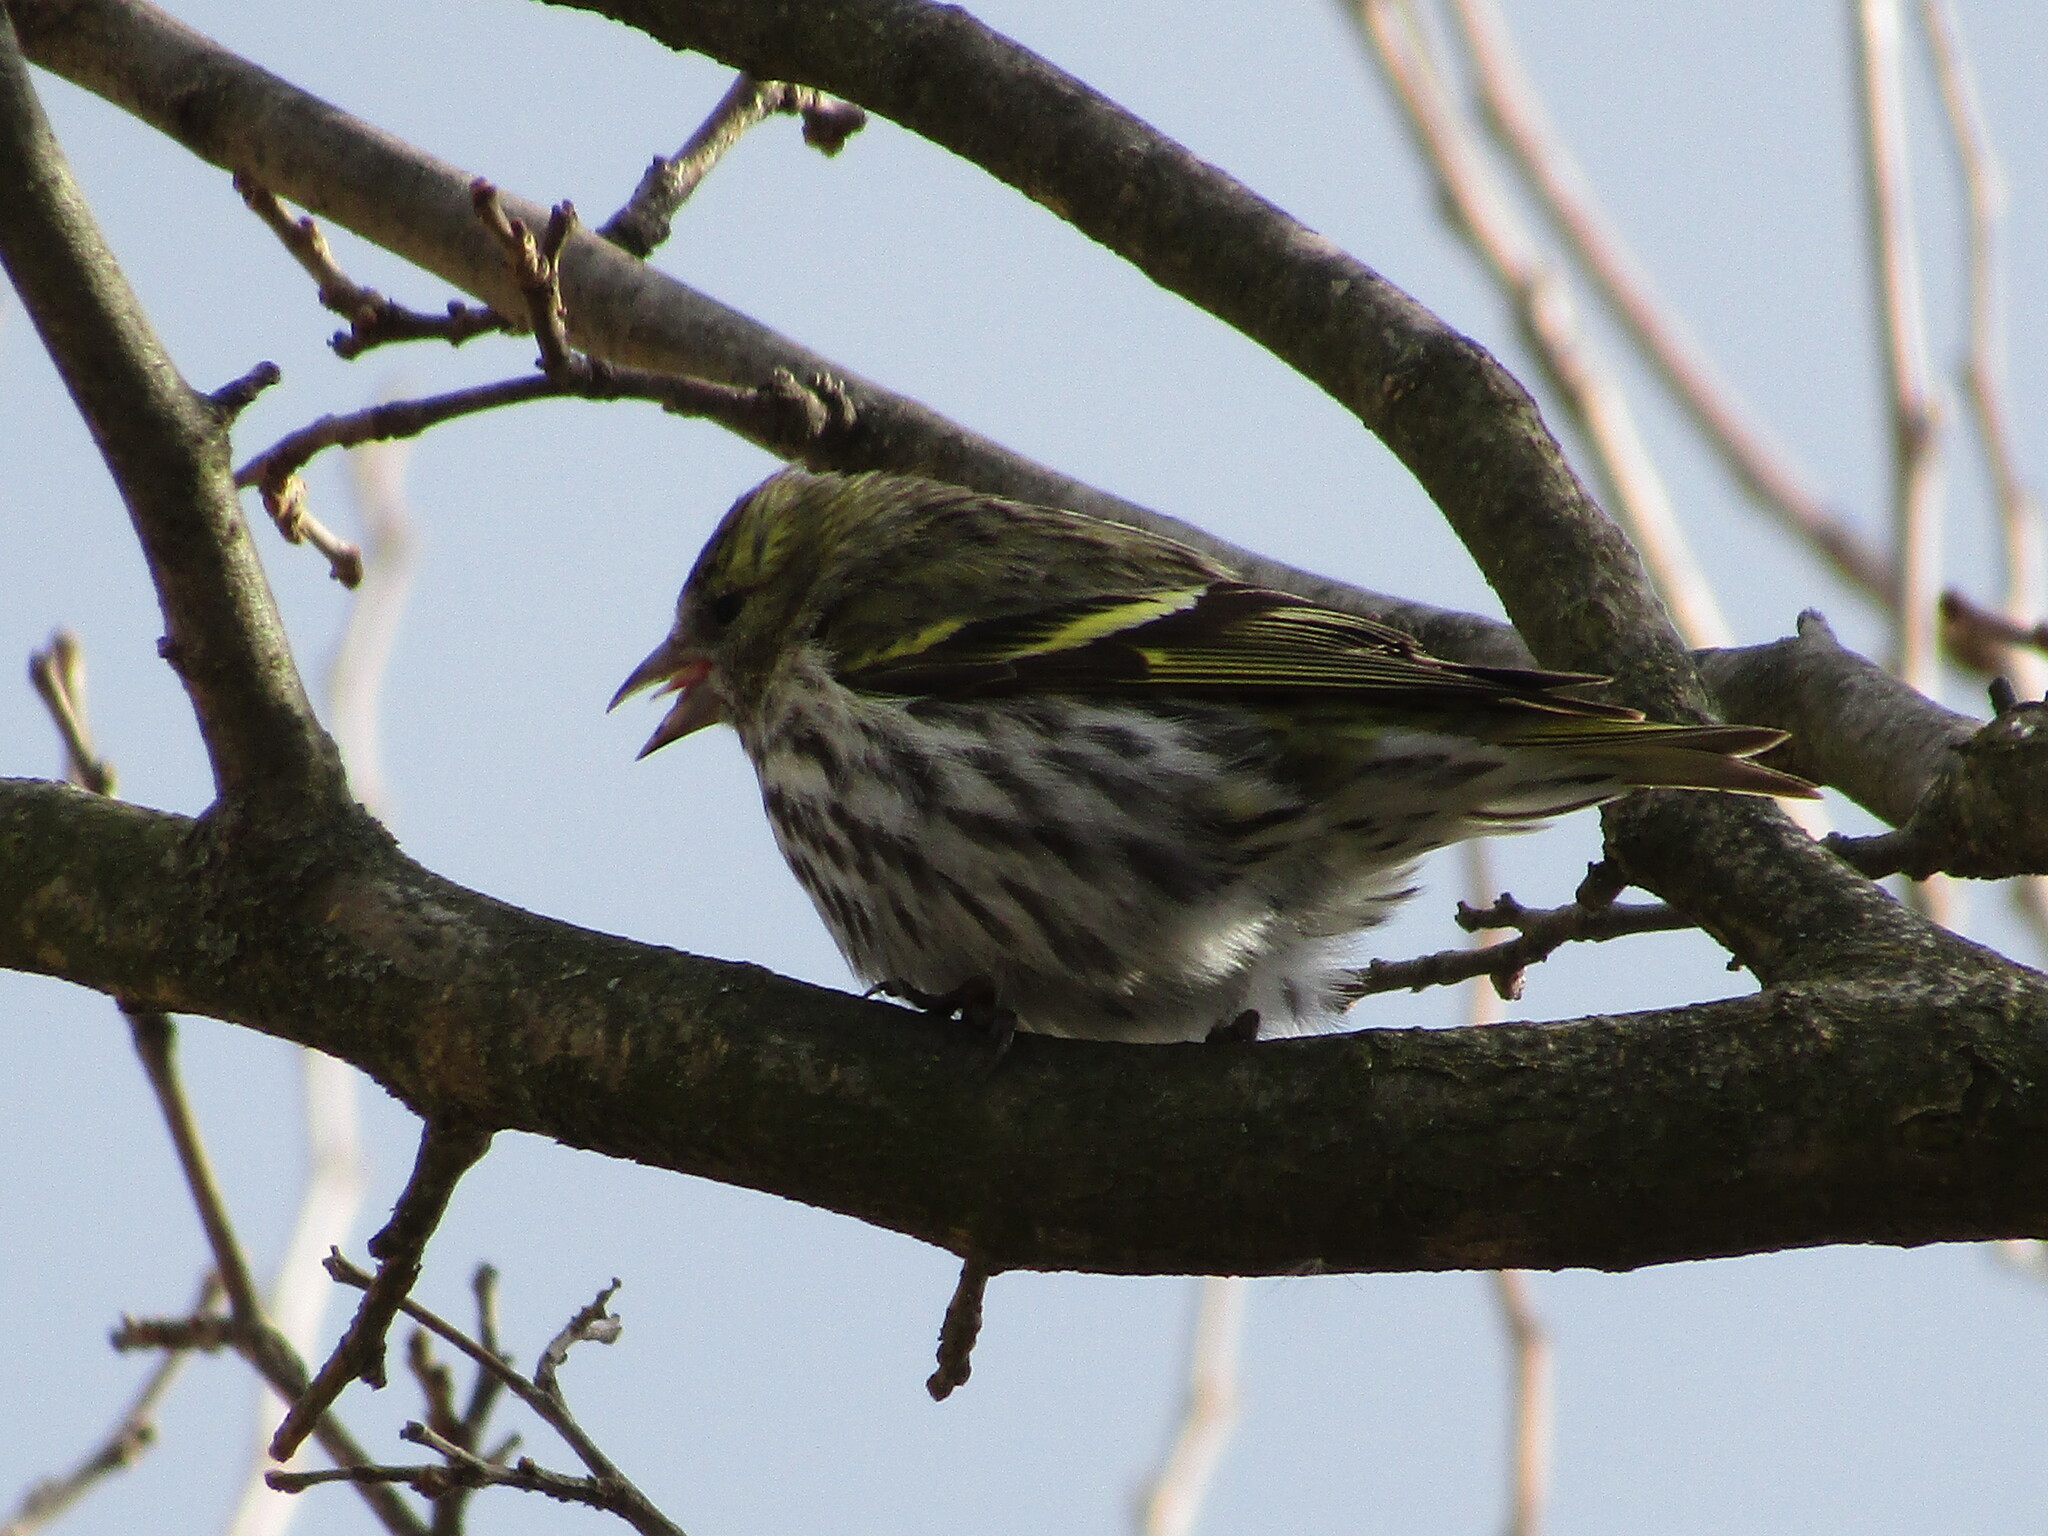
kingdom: Animalia
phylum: Chordata
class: Aves
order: Passeriformes
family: Fringillidae
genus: Spinus
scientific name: Spinus spinus
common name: Eurasian siskin
